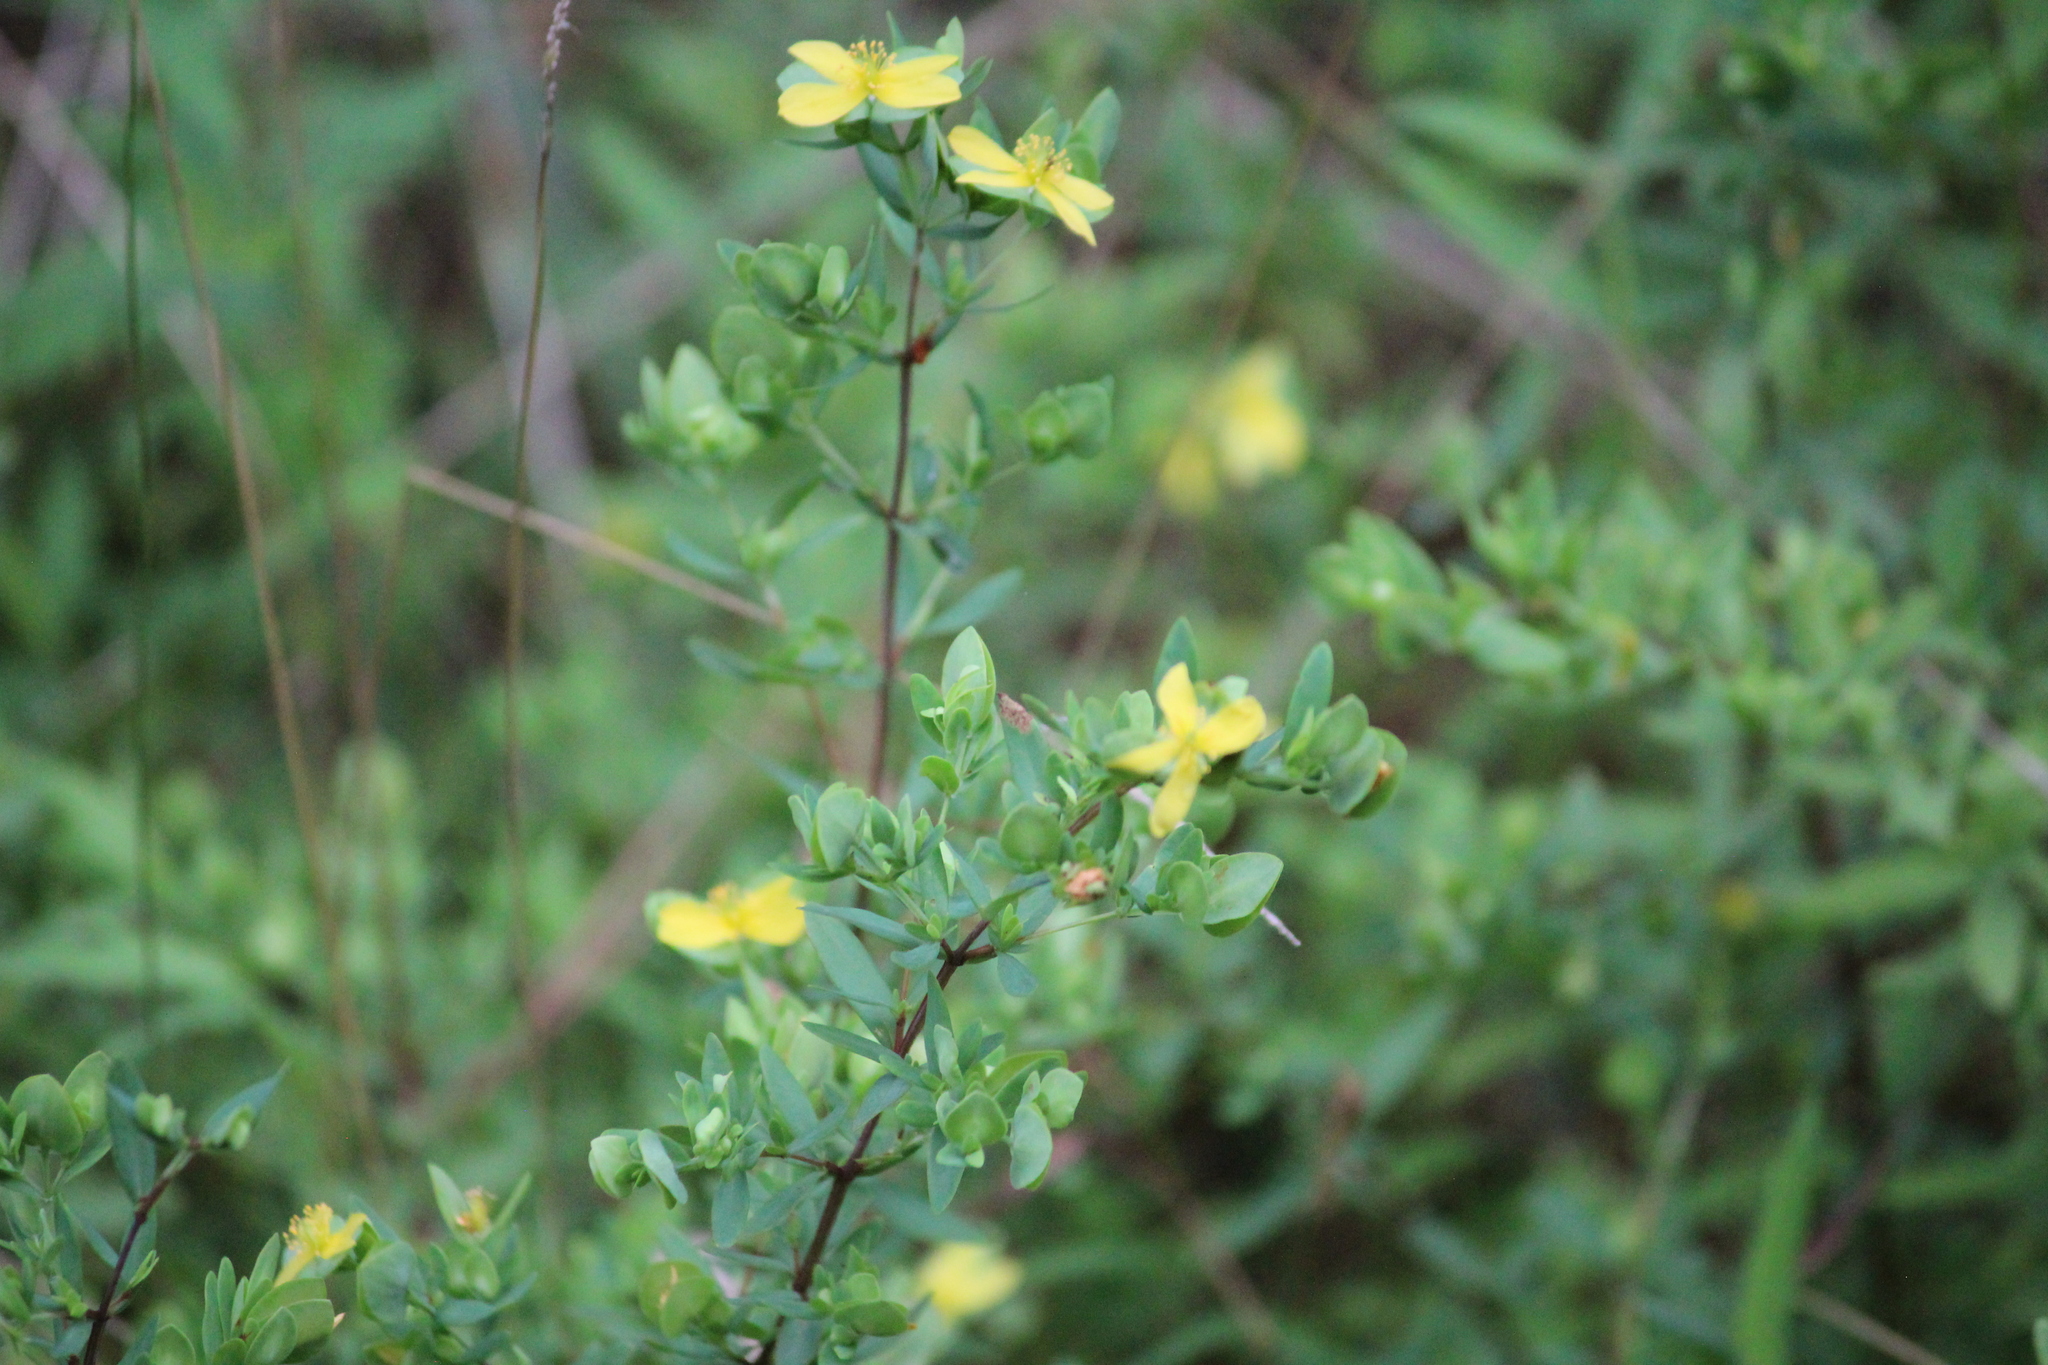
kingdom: Plantae
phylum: Tracheophyta
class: Magnoliopsida
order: Malpighiales
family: Hypericaceae
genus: Hypericum
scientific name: Hypericum hypericoides
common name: St. andrew's cross
